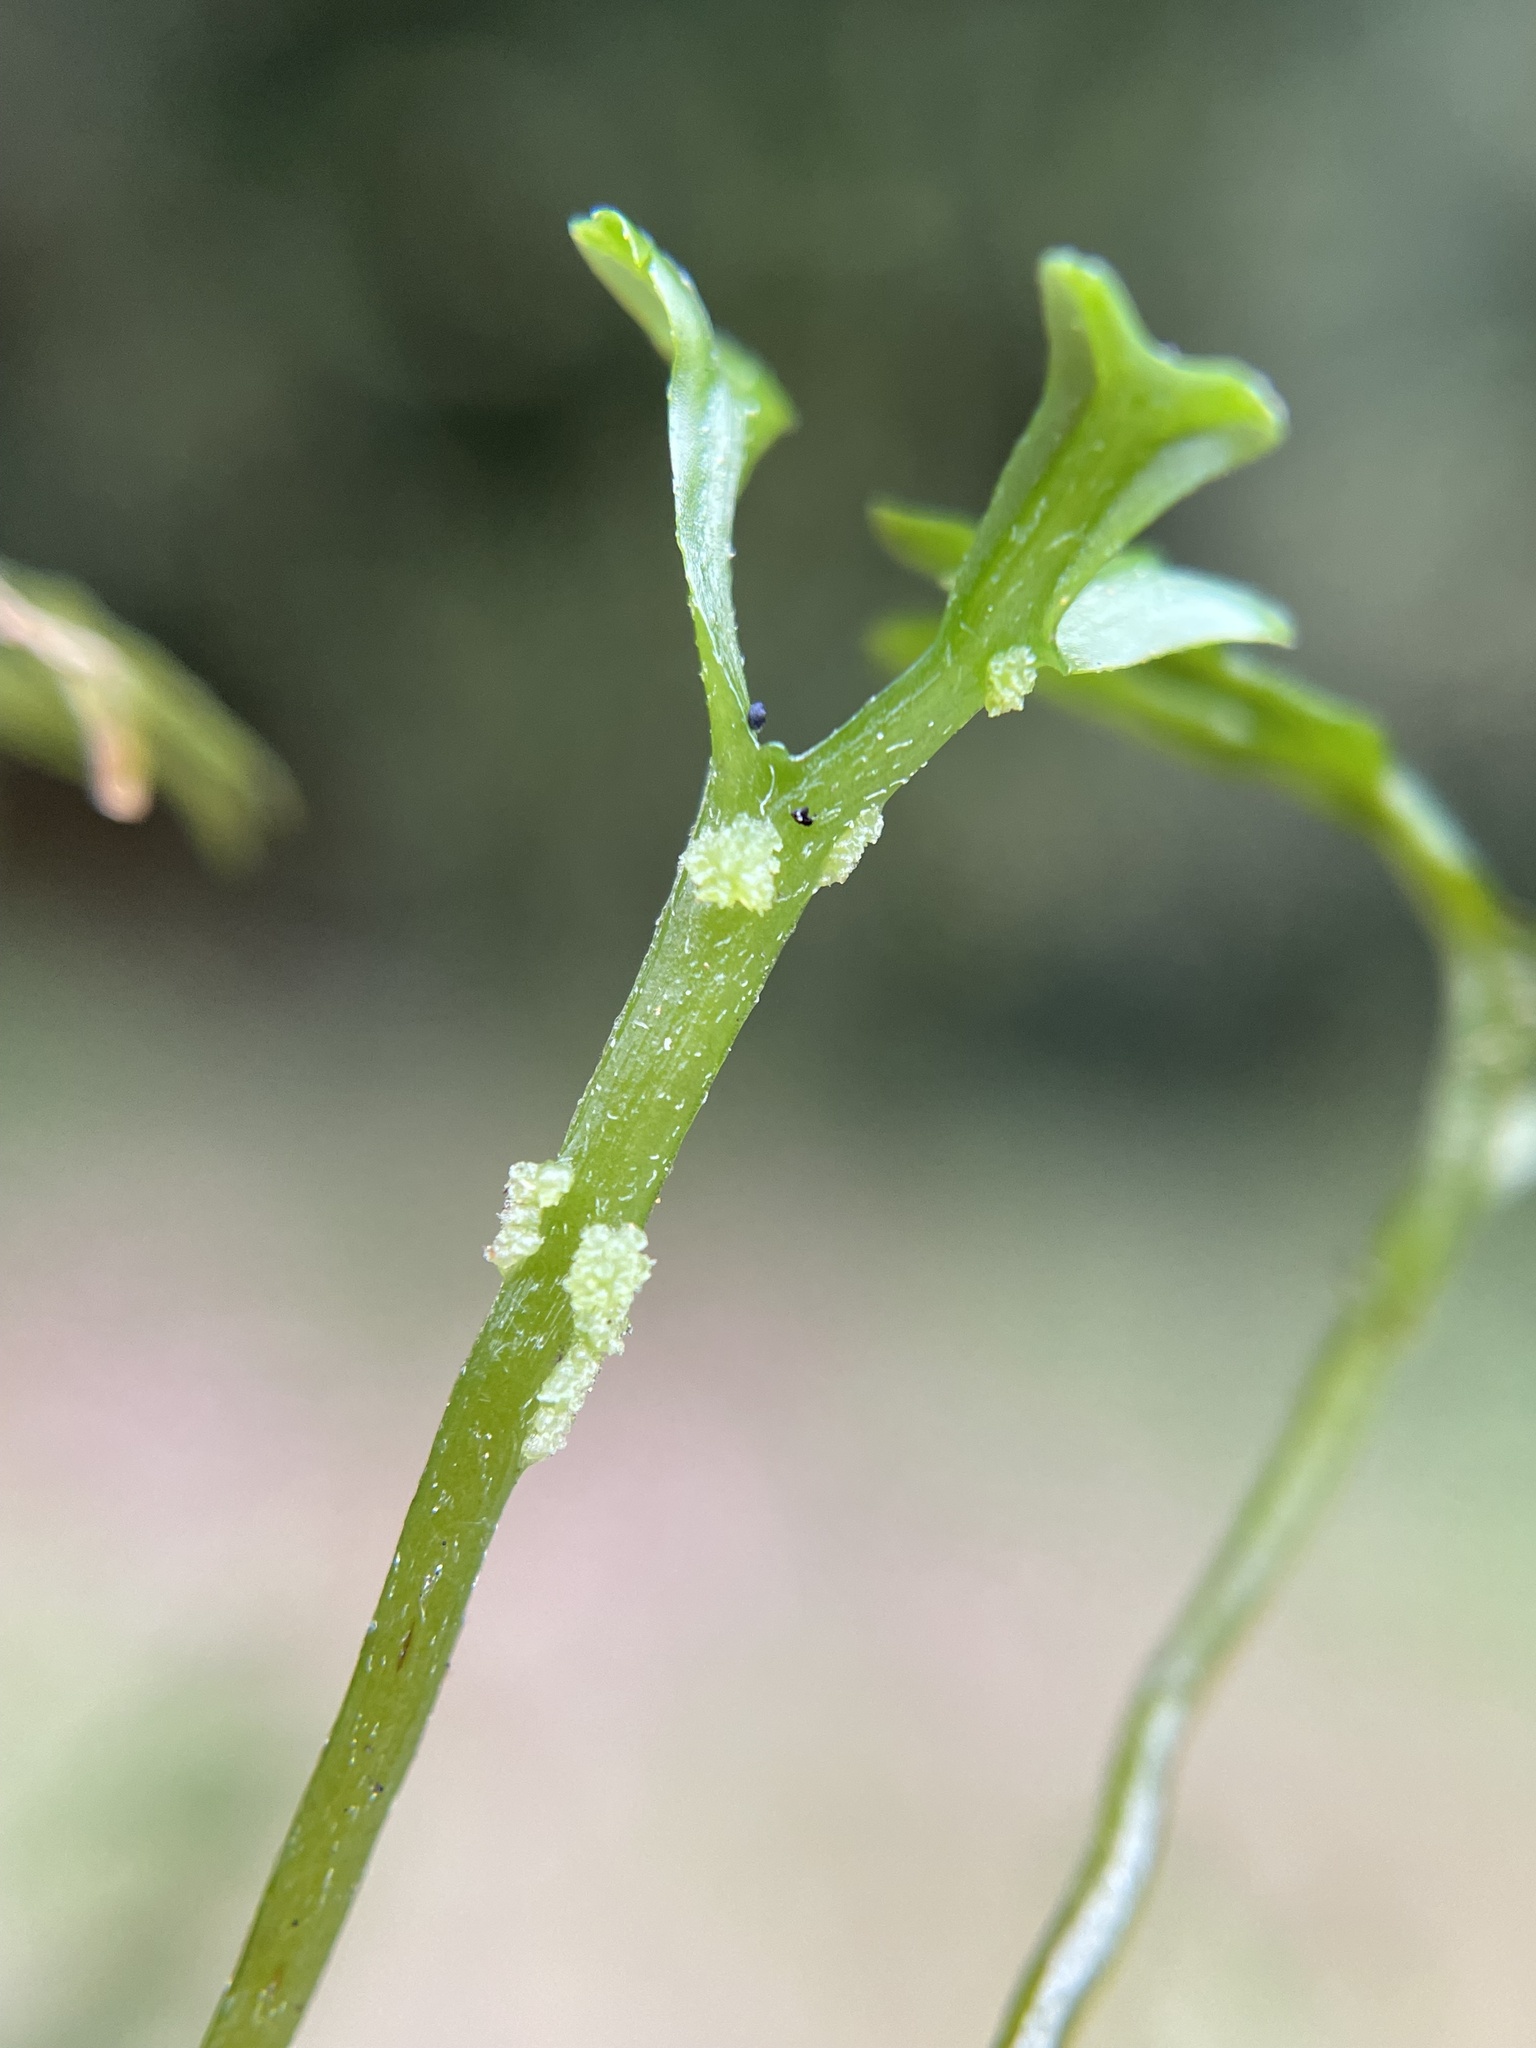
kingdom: Plantae
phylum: Marchantiophyta
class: Jungermanniopsida
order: Pallaviciniales
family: Hymenophytaceae
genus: Hymenophyton
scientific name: Hymenophyton flabellatum
